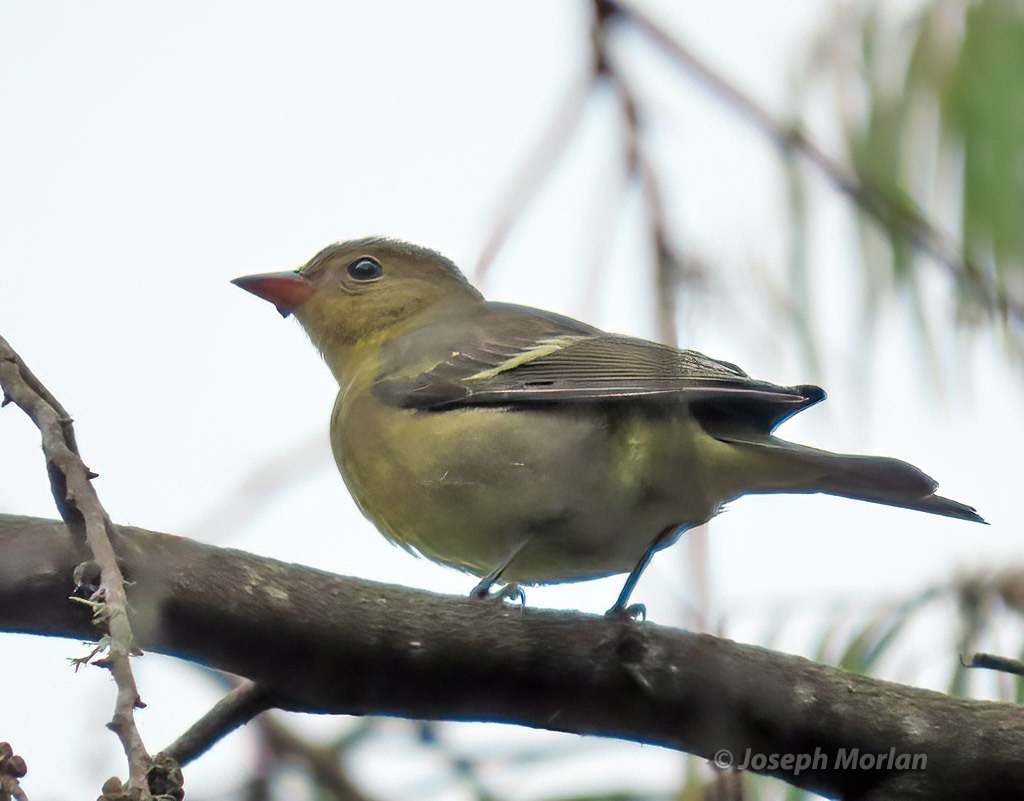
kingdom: Animalia
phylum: Chordata
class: Aves
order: Passeriformes
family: Cardinalidae
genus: Piranga
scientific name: Piranga ludoviciana
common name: Western tanager
